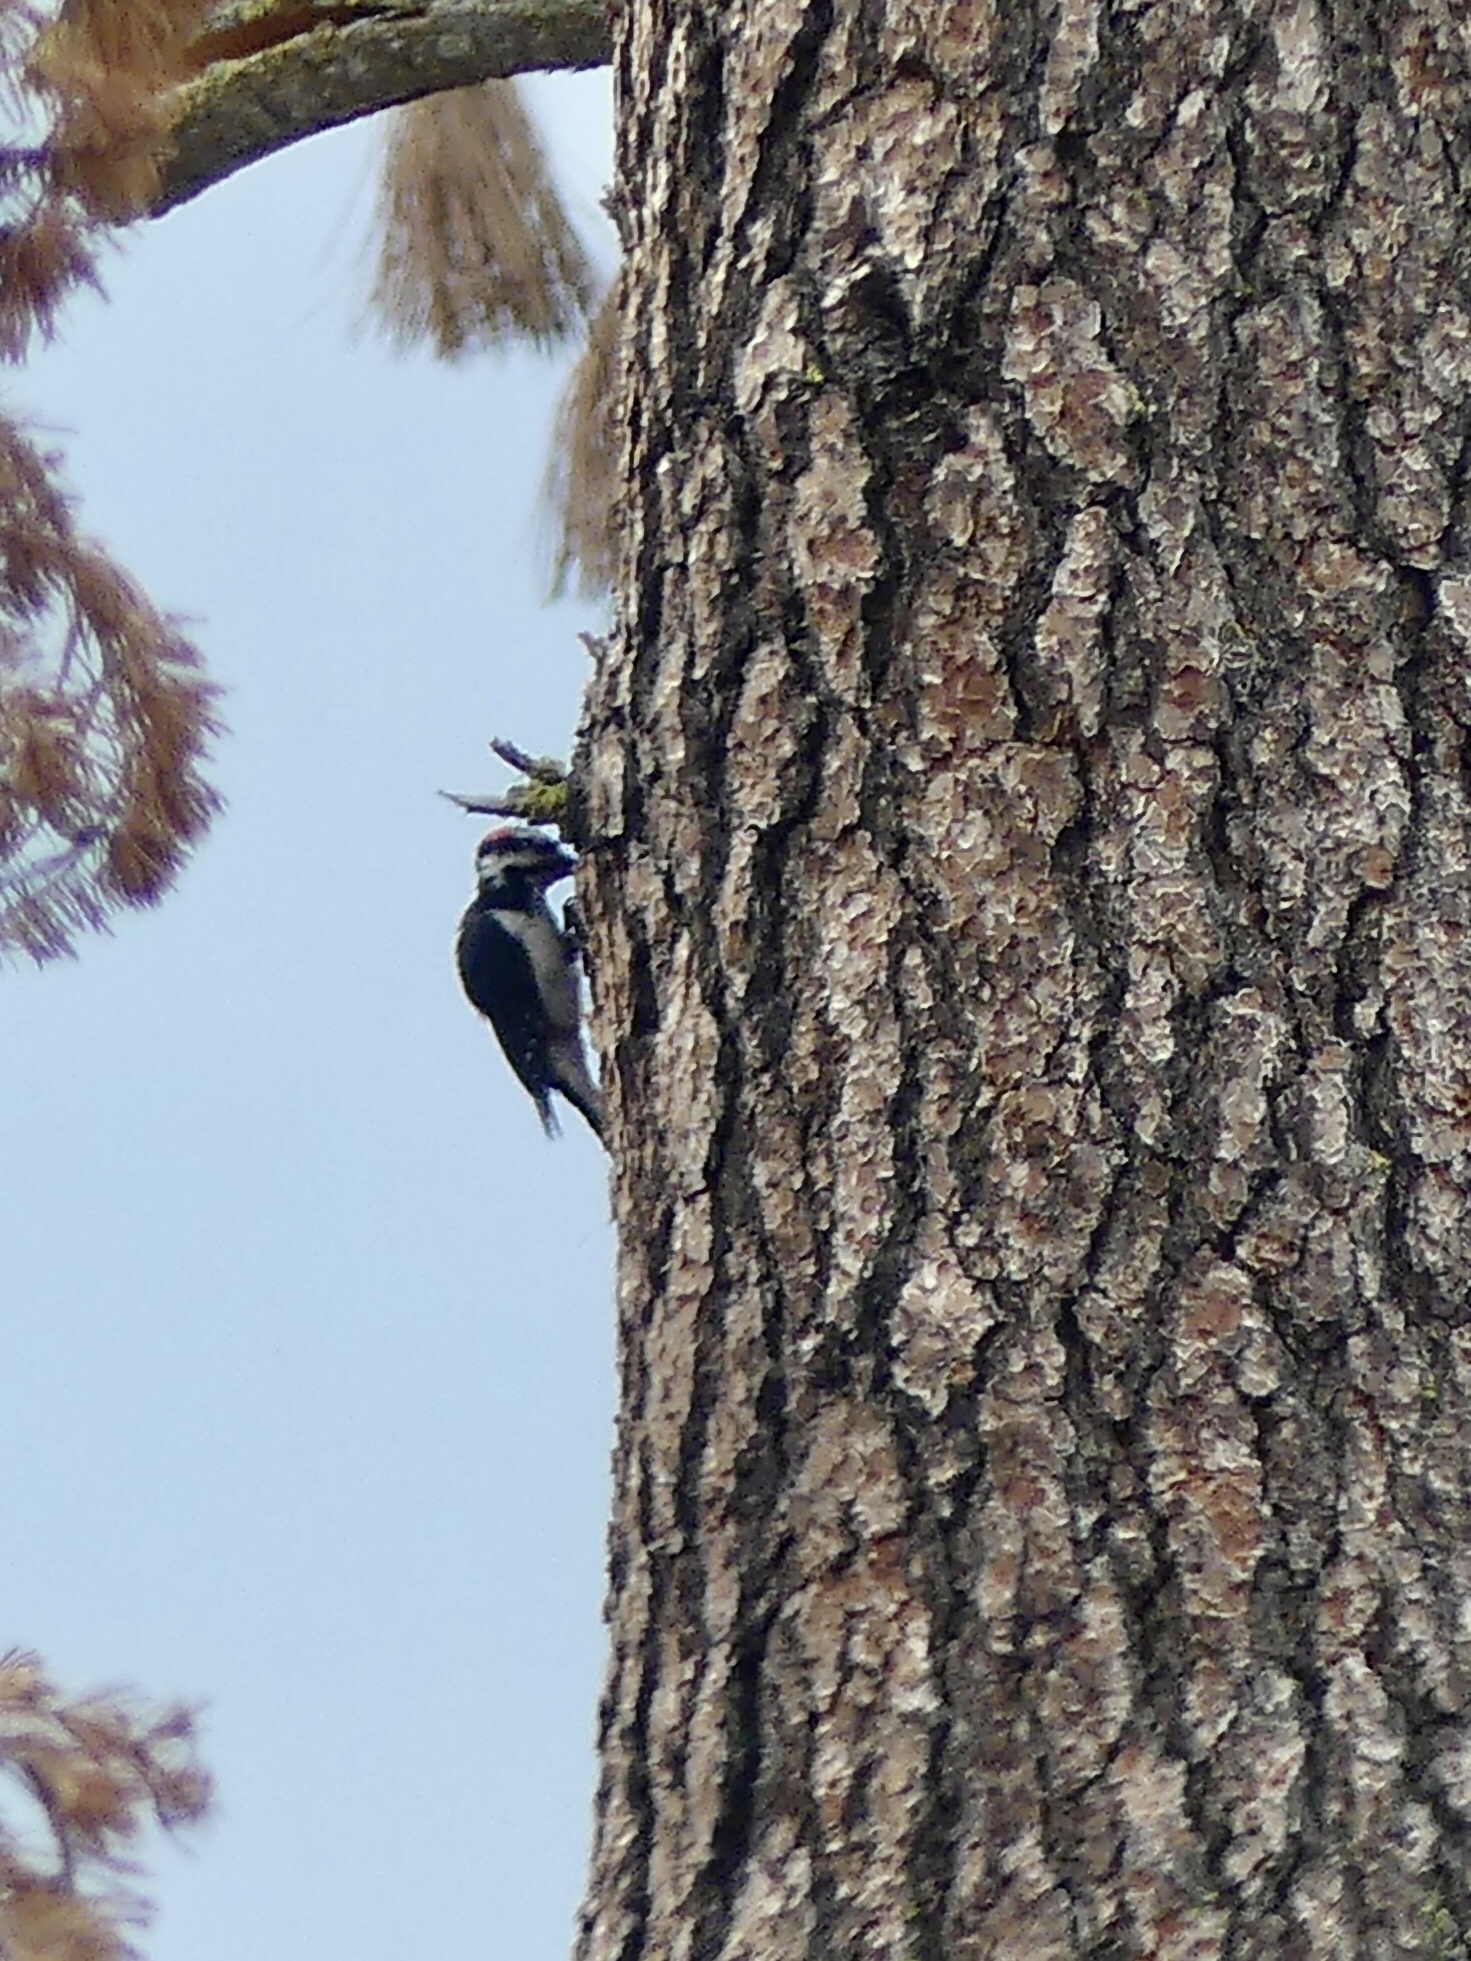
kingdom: Animalia
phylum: Chordata
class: Aves
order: Piciformes
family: Picidae
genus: Leuconotopicus
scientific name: Leuconotopicus villosus
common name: Hairy woodpecker
